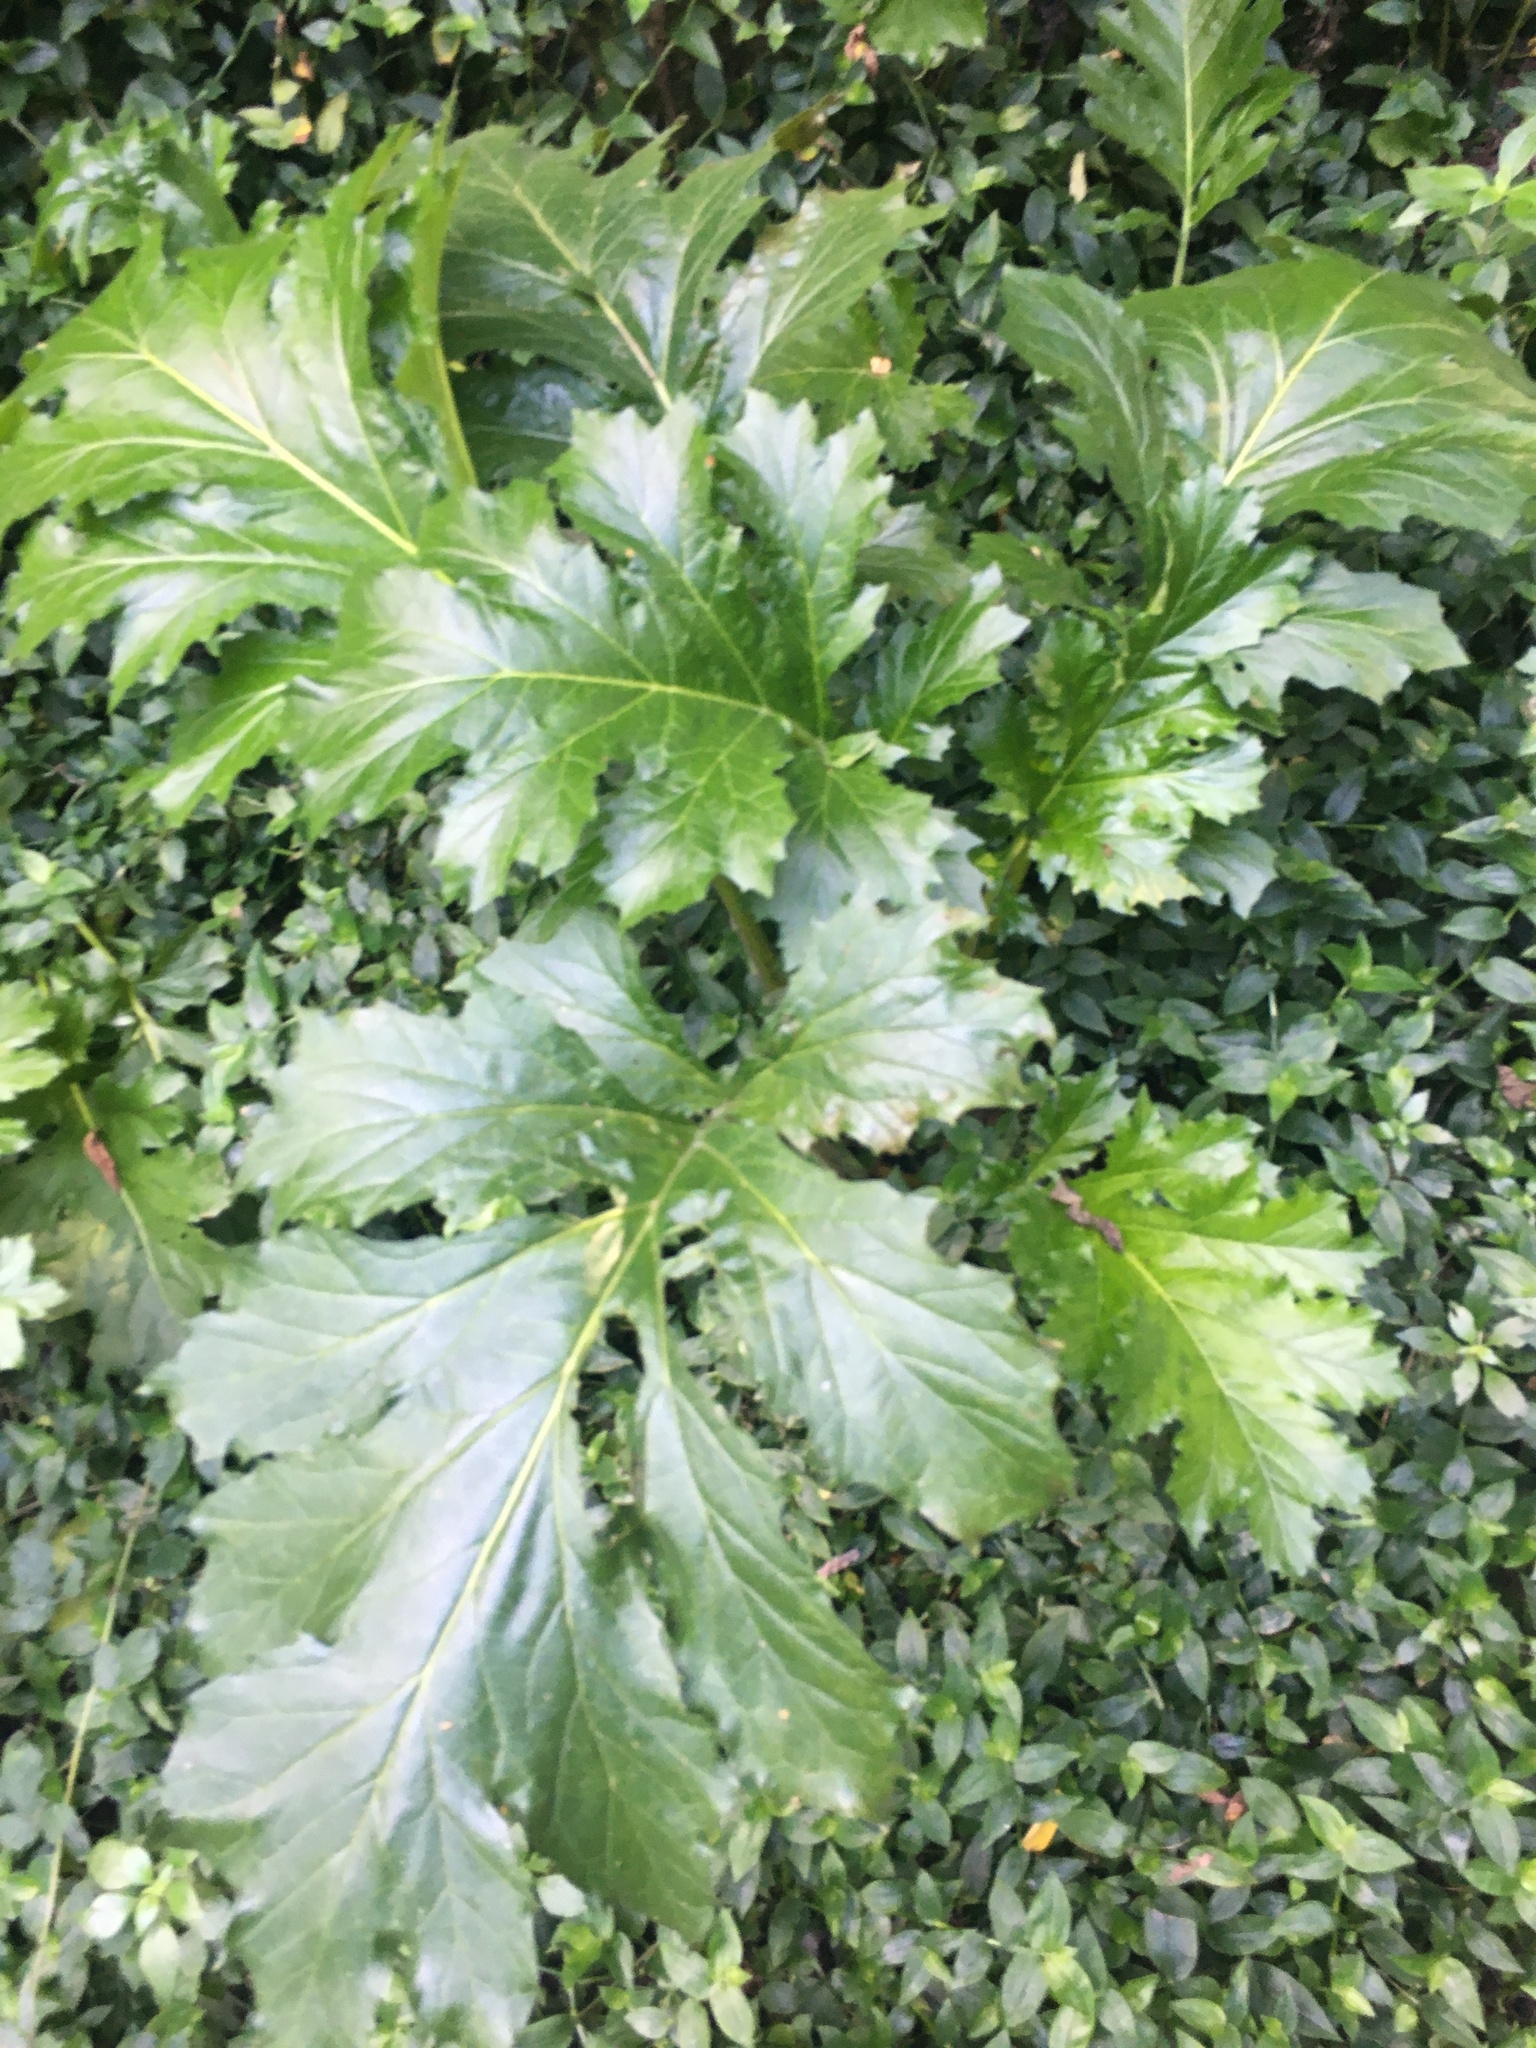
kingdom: Plantae
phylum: Tracheophyta
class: Magnoliopsida
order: Lamiales
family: Acanthaceae
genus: Acanthus
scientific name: Acanthus mollis
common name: Bear's-breech
